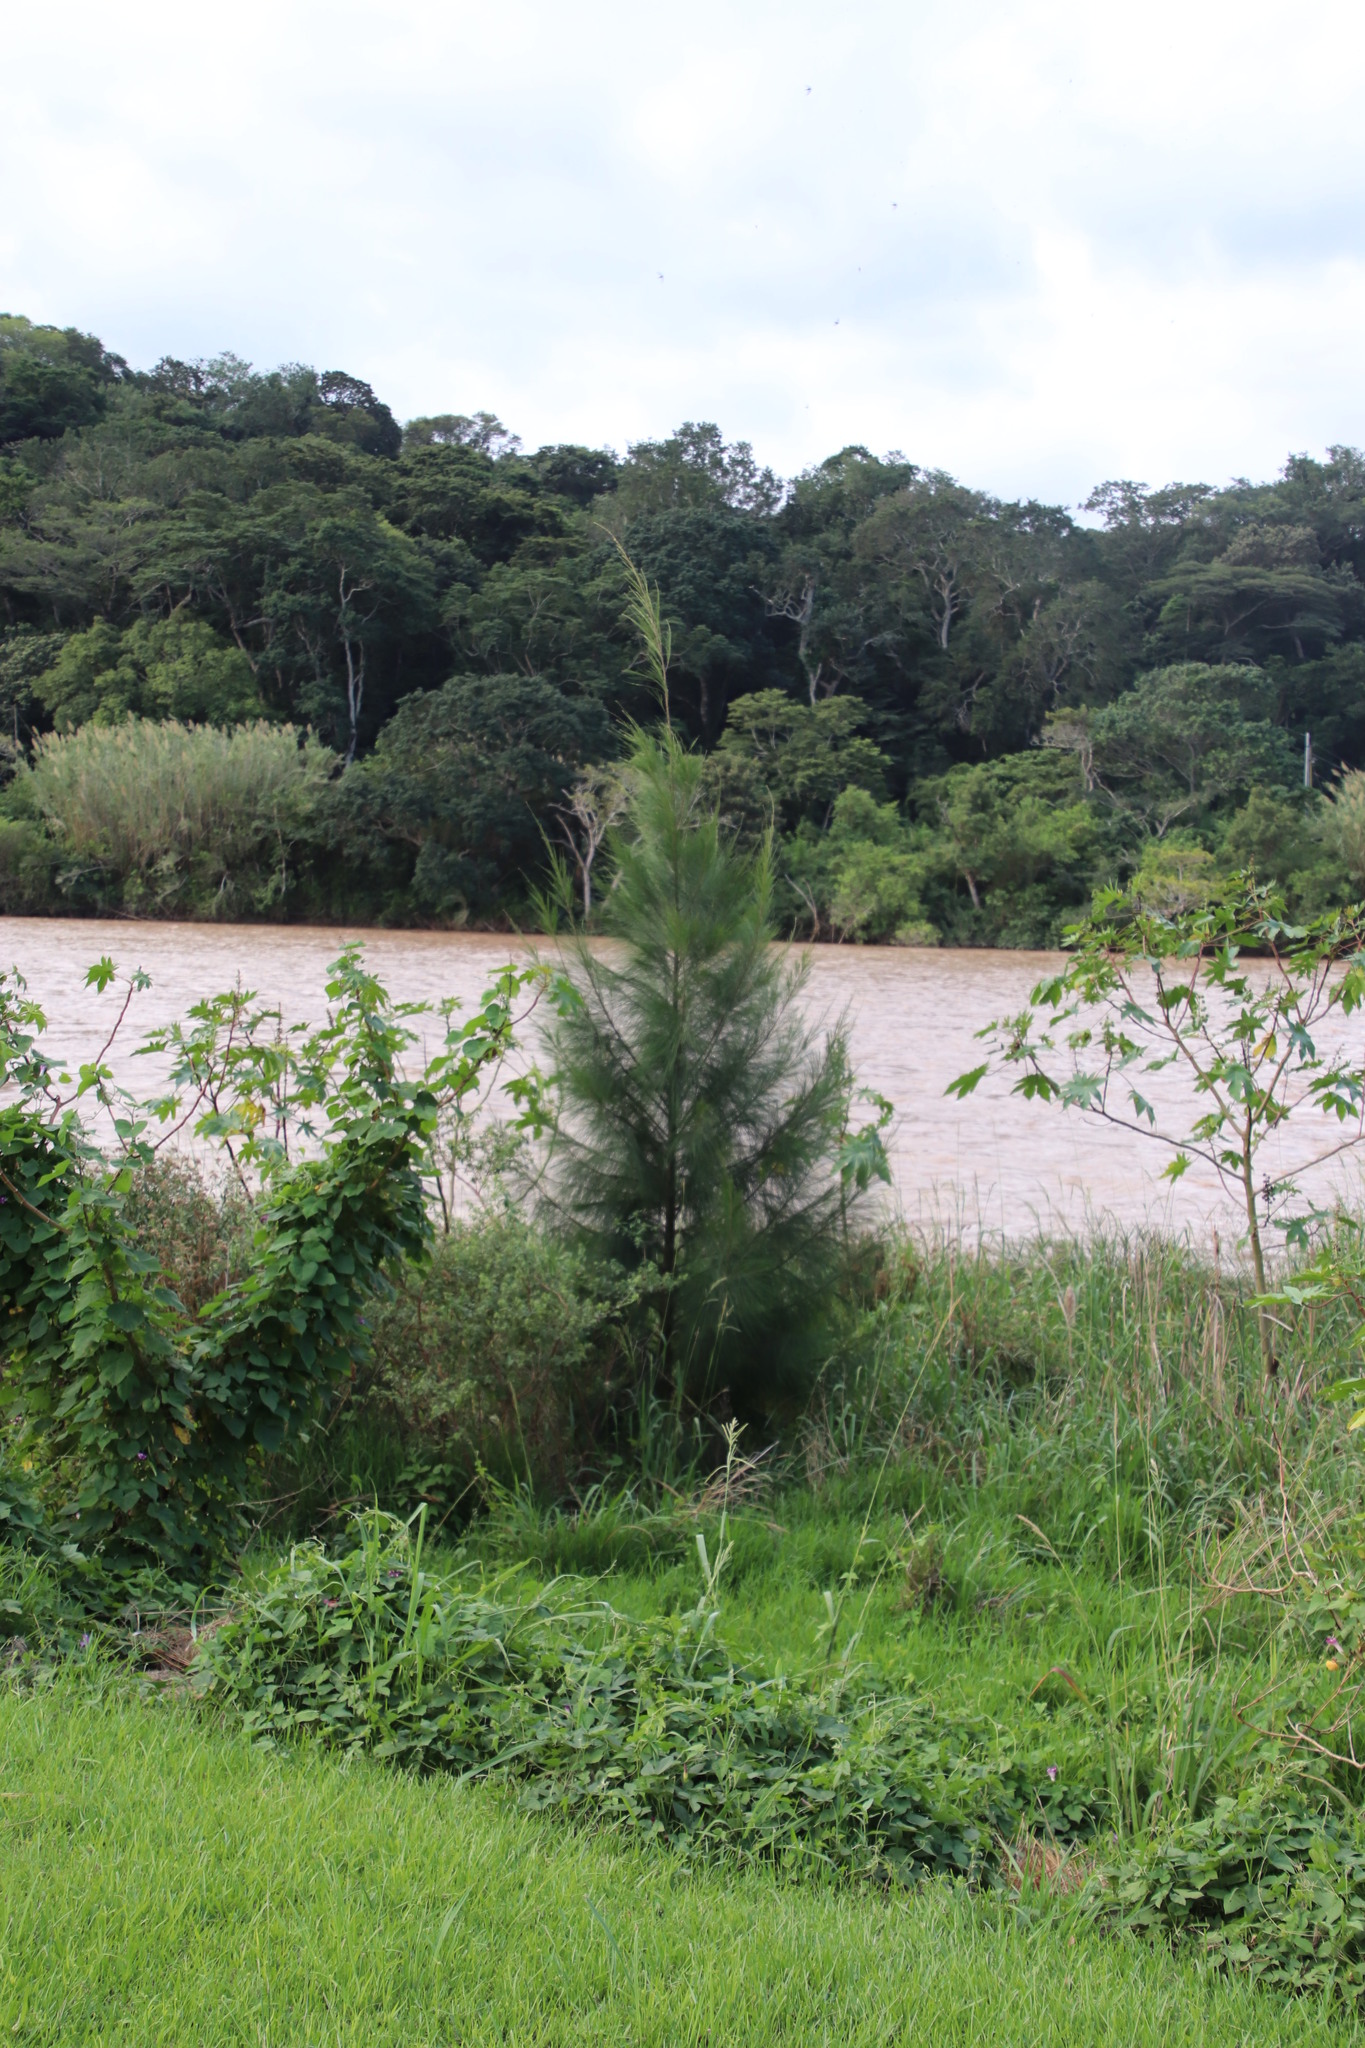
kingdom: Plantae
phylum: Tracheophyta
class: Magnoliopsida
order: Fagales
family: Casuarinaceae
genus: Casuarina
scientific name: Casuarina cunninghamiana
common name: River sheoak
